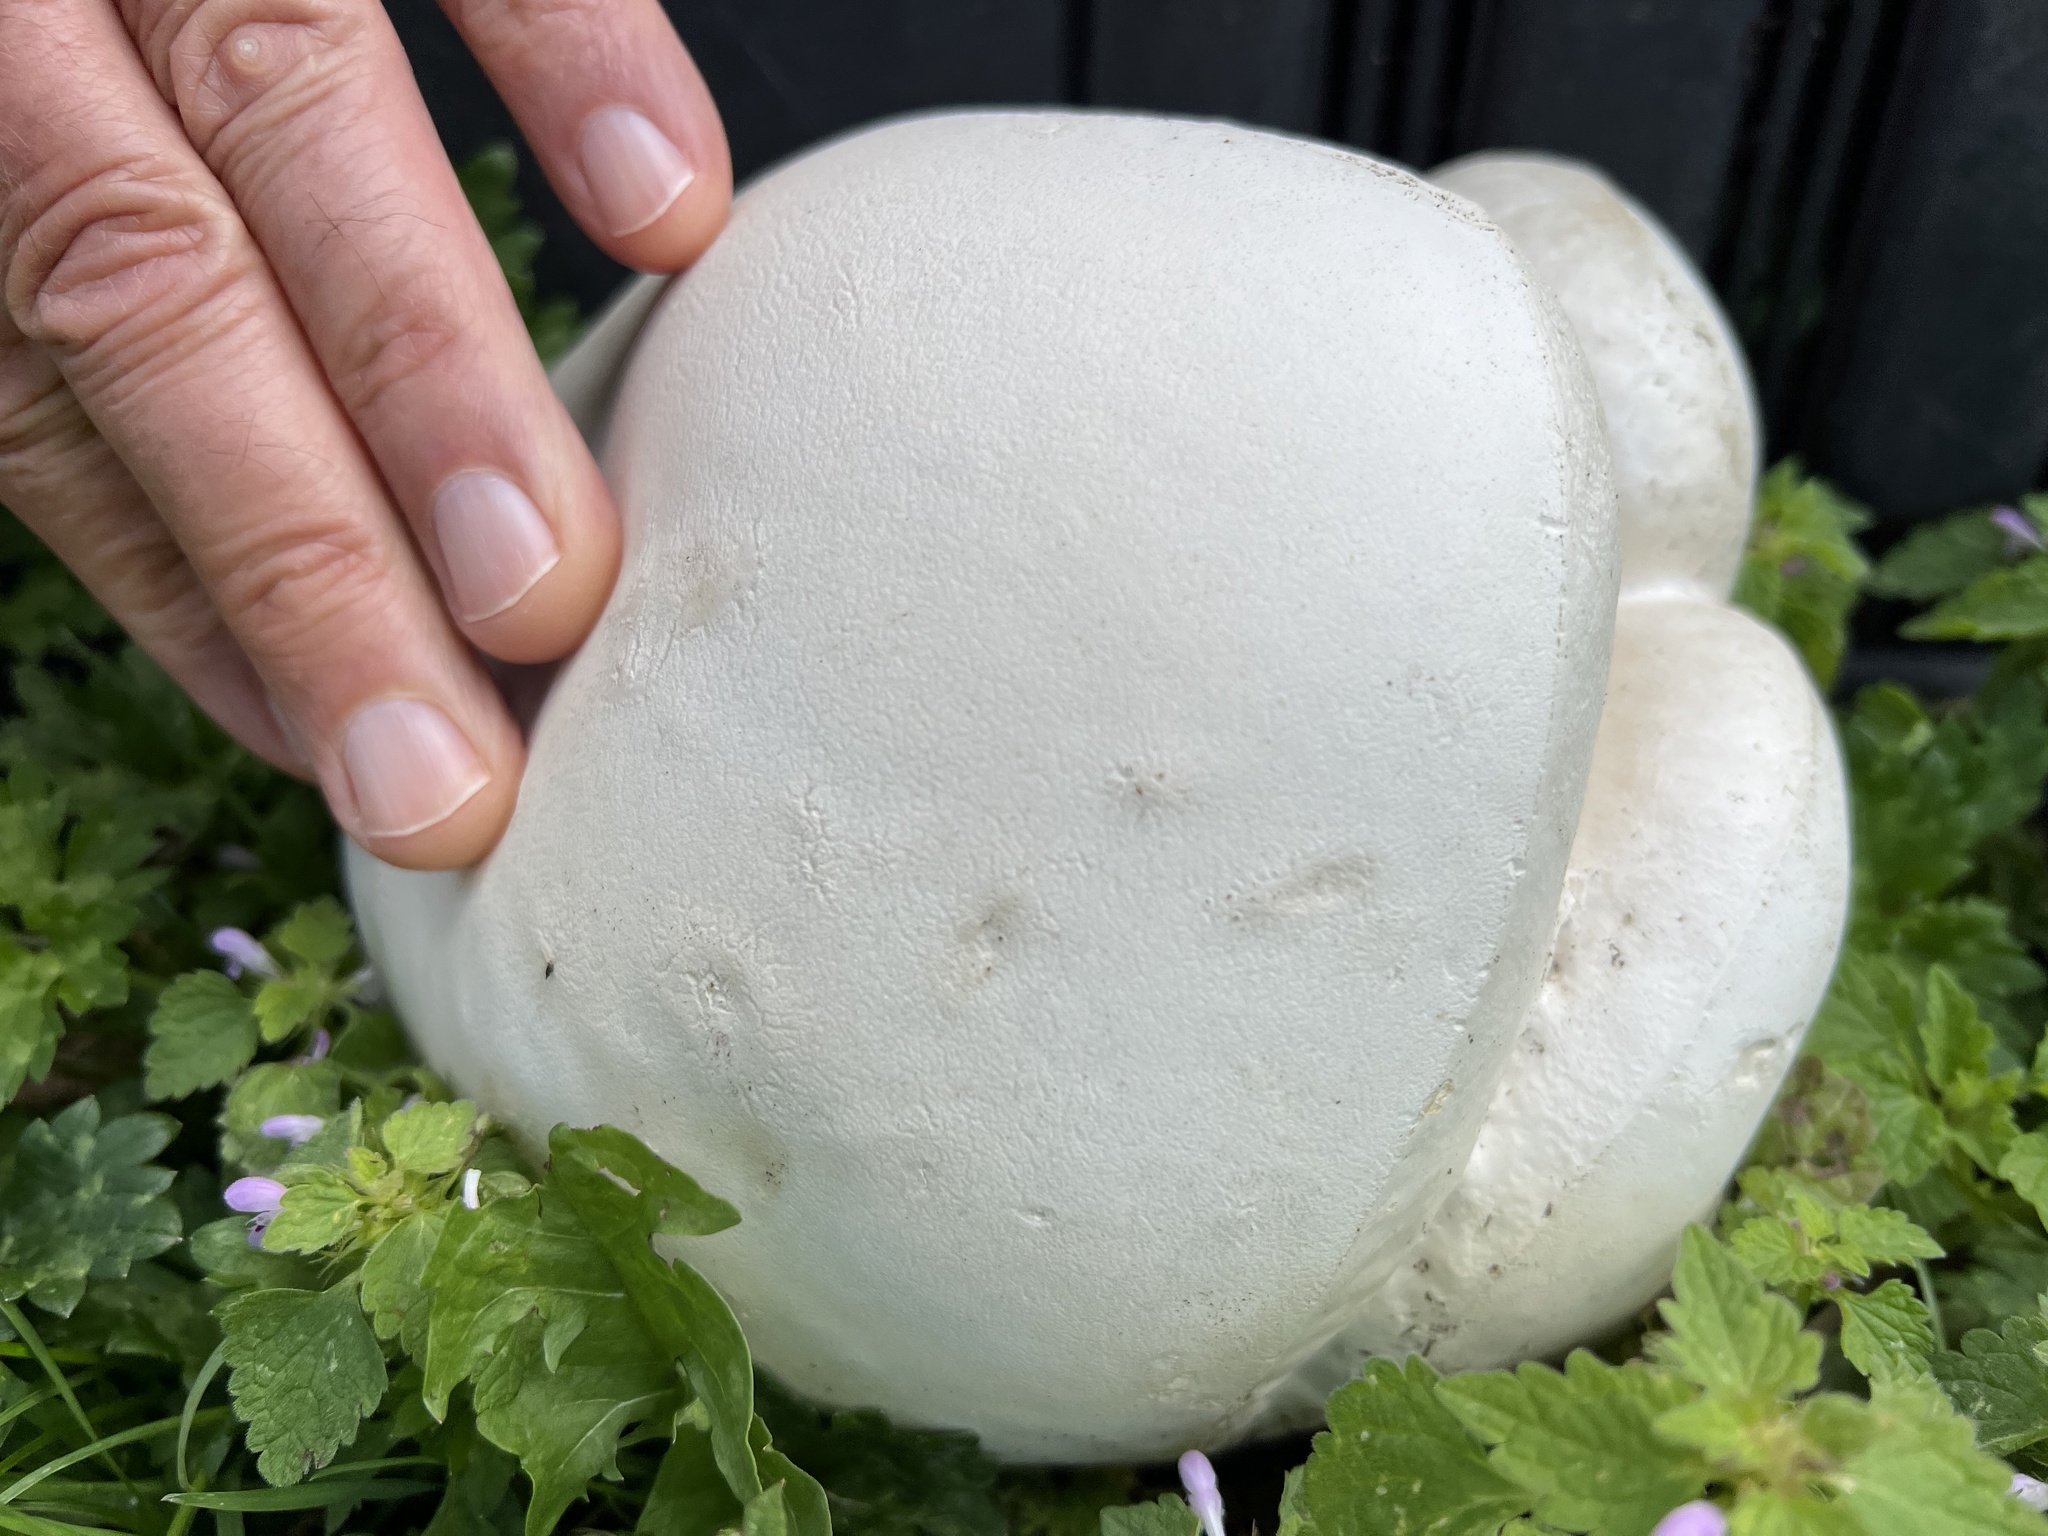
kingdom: Fungi
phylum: Basidiomycota
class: Agaricomycetes
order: Agaricales
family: Lycoperdaceae
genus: Calvatia
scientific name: Calvatia gigantea
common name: Giant puffball
